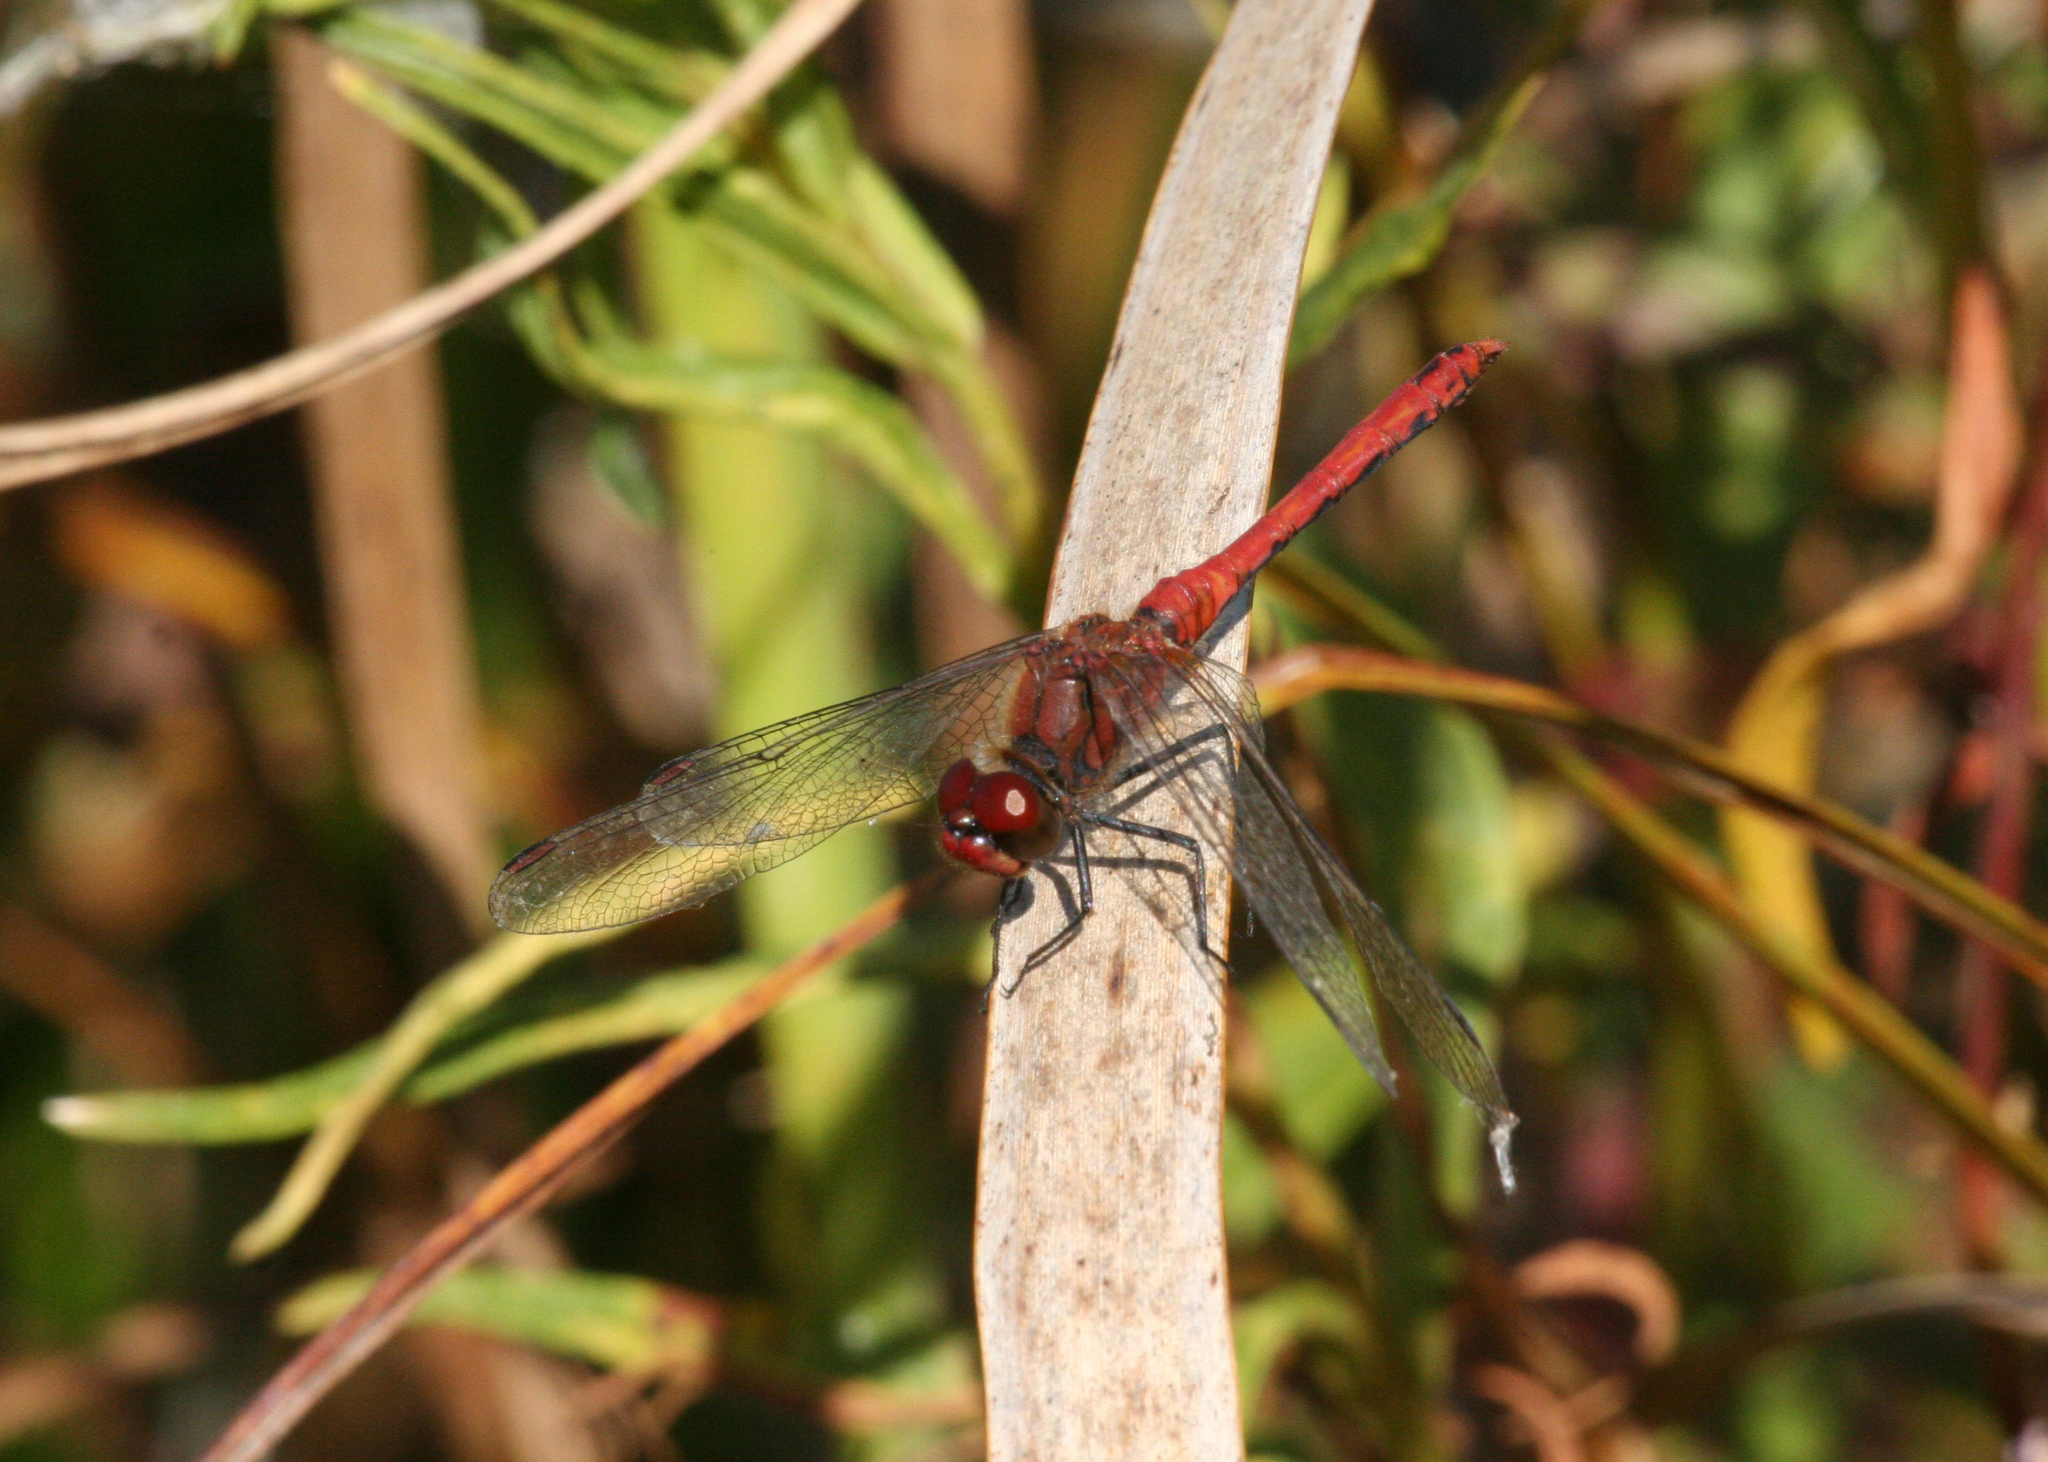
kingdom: Animalia
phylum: Arthropoda
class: Insecta
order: Odonata
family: Libellulidae
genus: Sympetrum
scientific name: Sympetrum sanguineum
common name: Ruddy darter
